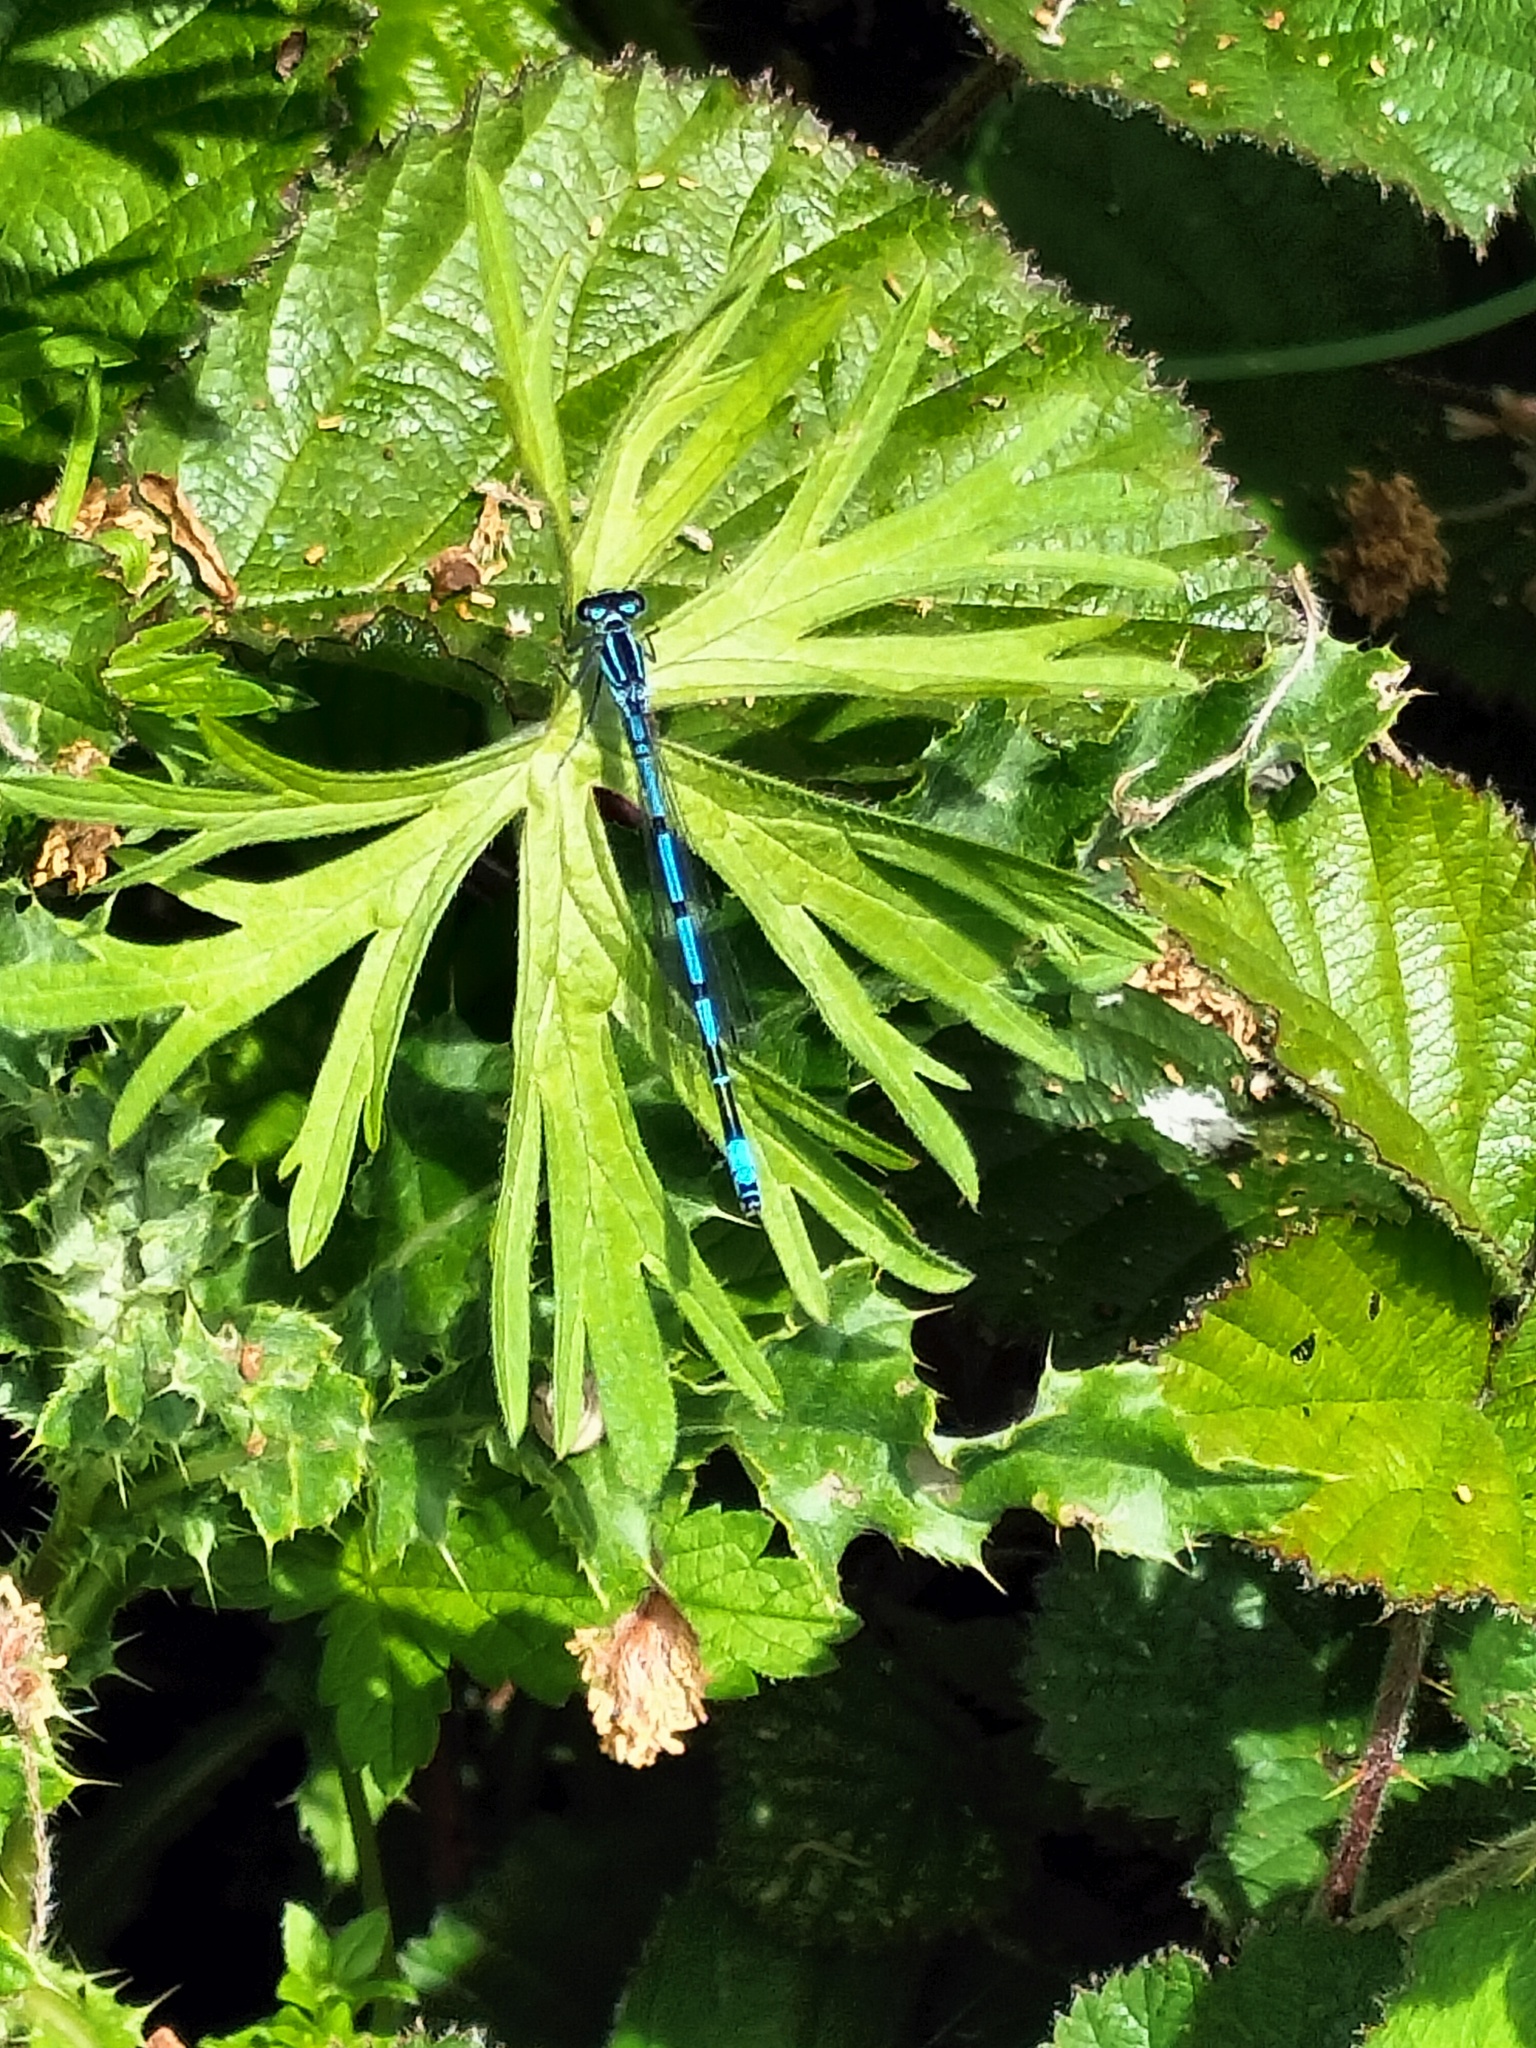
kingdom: Animalia
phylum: Arthropoda
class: Insecta
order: Odonata
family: Coenagrionidae
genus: Coenagrion
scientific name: Coenagrion puella
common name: Azure damselfly
